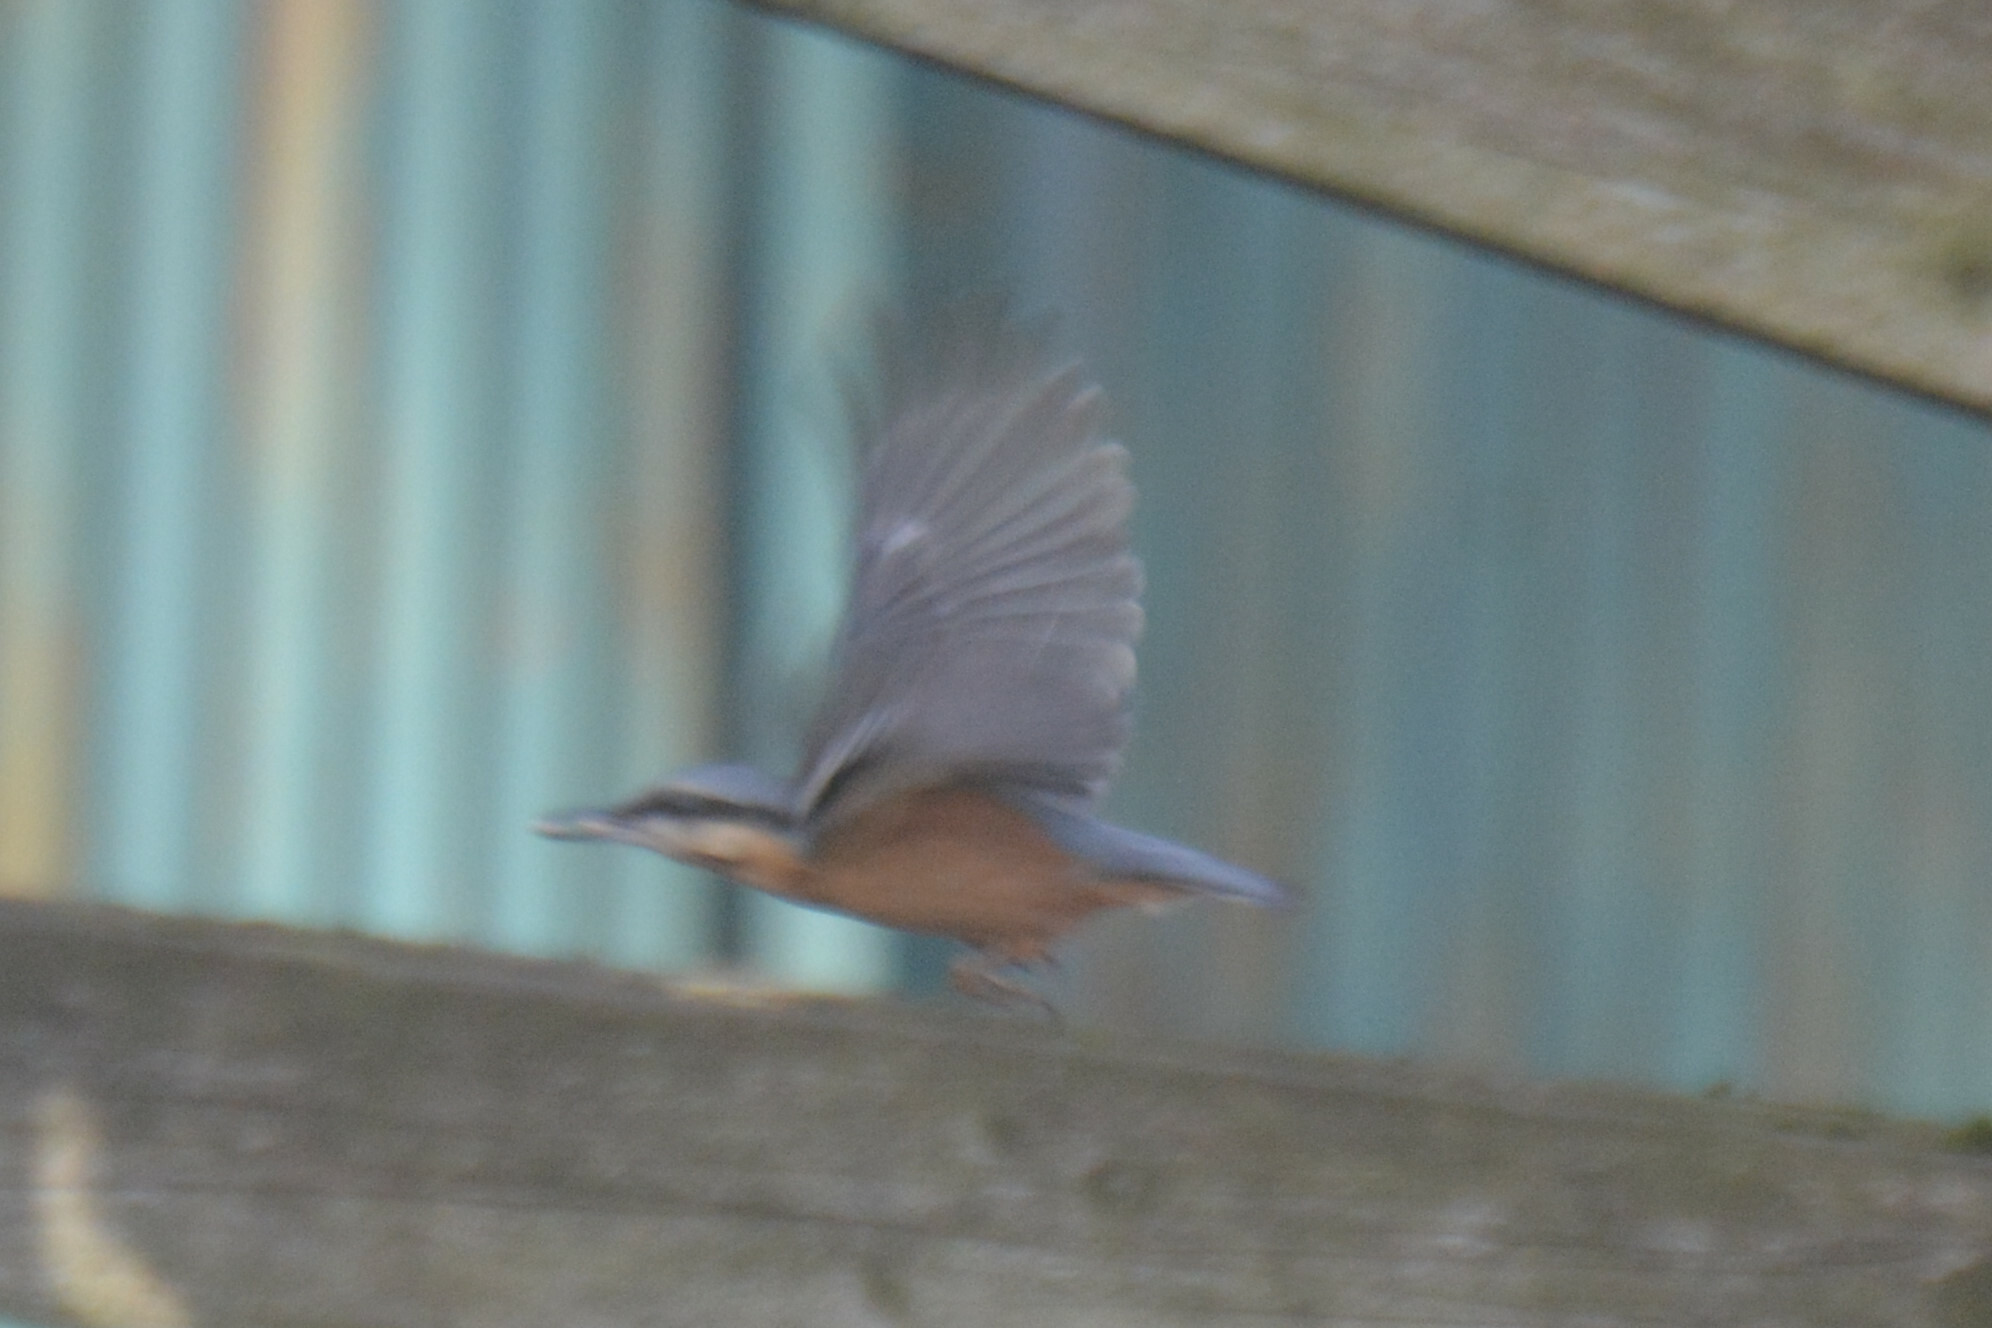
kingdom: Animalia
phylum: Chordata
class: Aves
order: Passeriformes
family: Sittidae
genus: Sitta
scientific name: Sitta europaea
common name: Eurasian nuthatch
